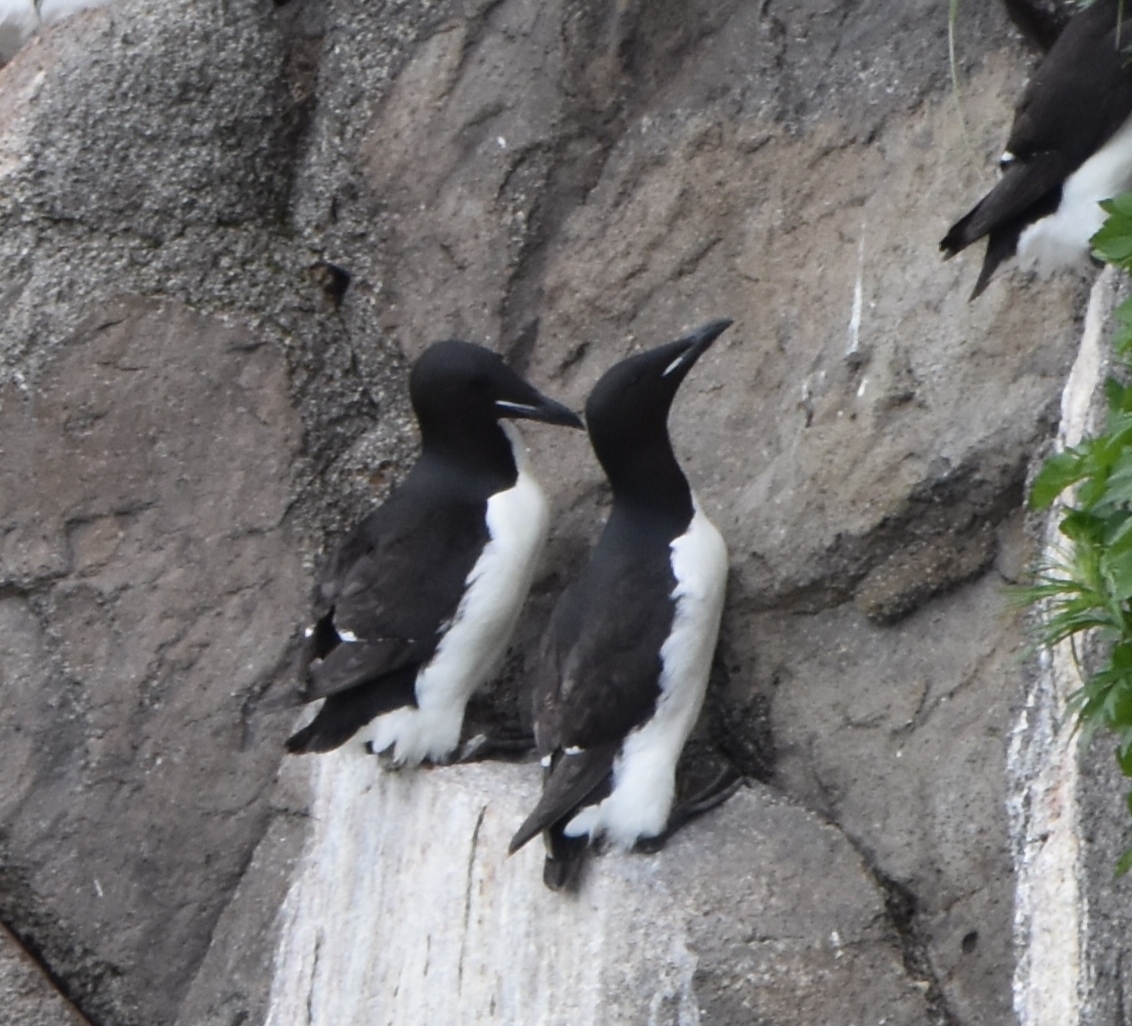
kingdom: Animalia
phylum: Chordata
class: Aves
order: Charadriiformes
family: Alcidae
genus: Uria
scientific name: Uria lomvia
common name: Thick-billed murre
